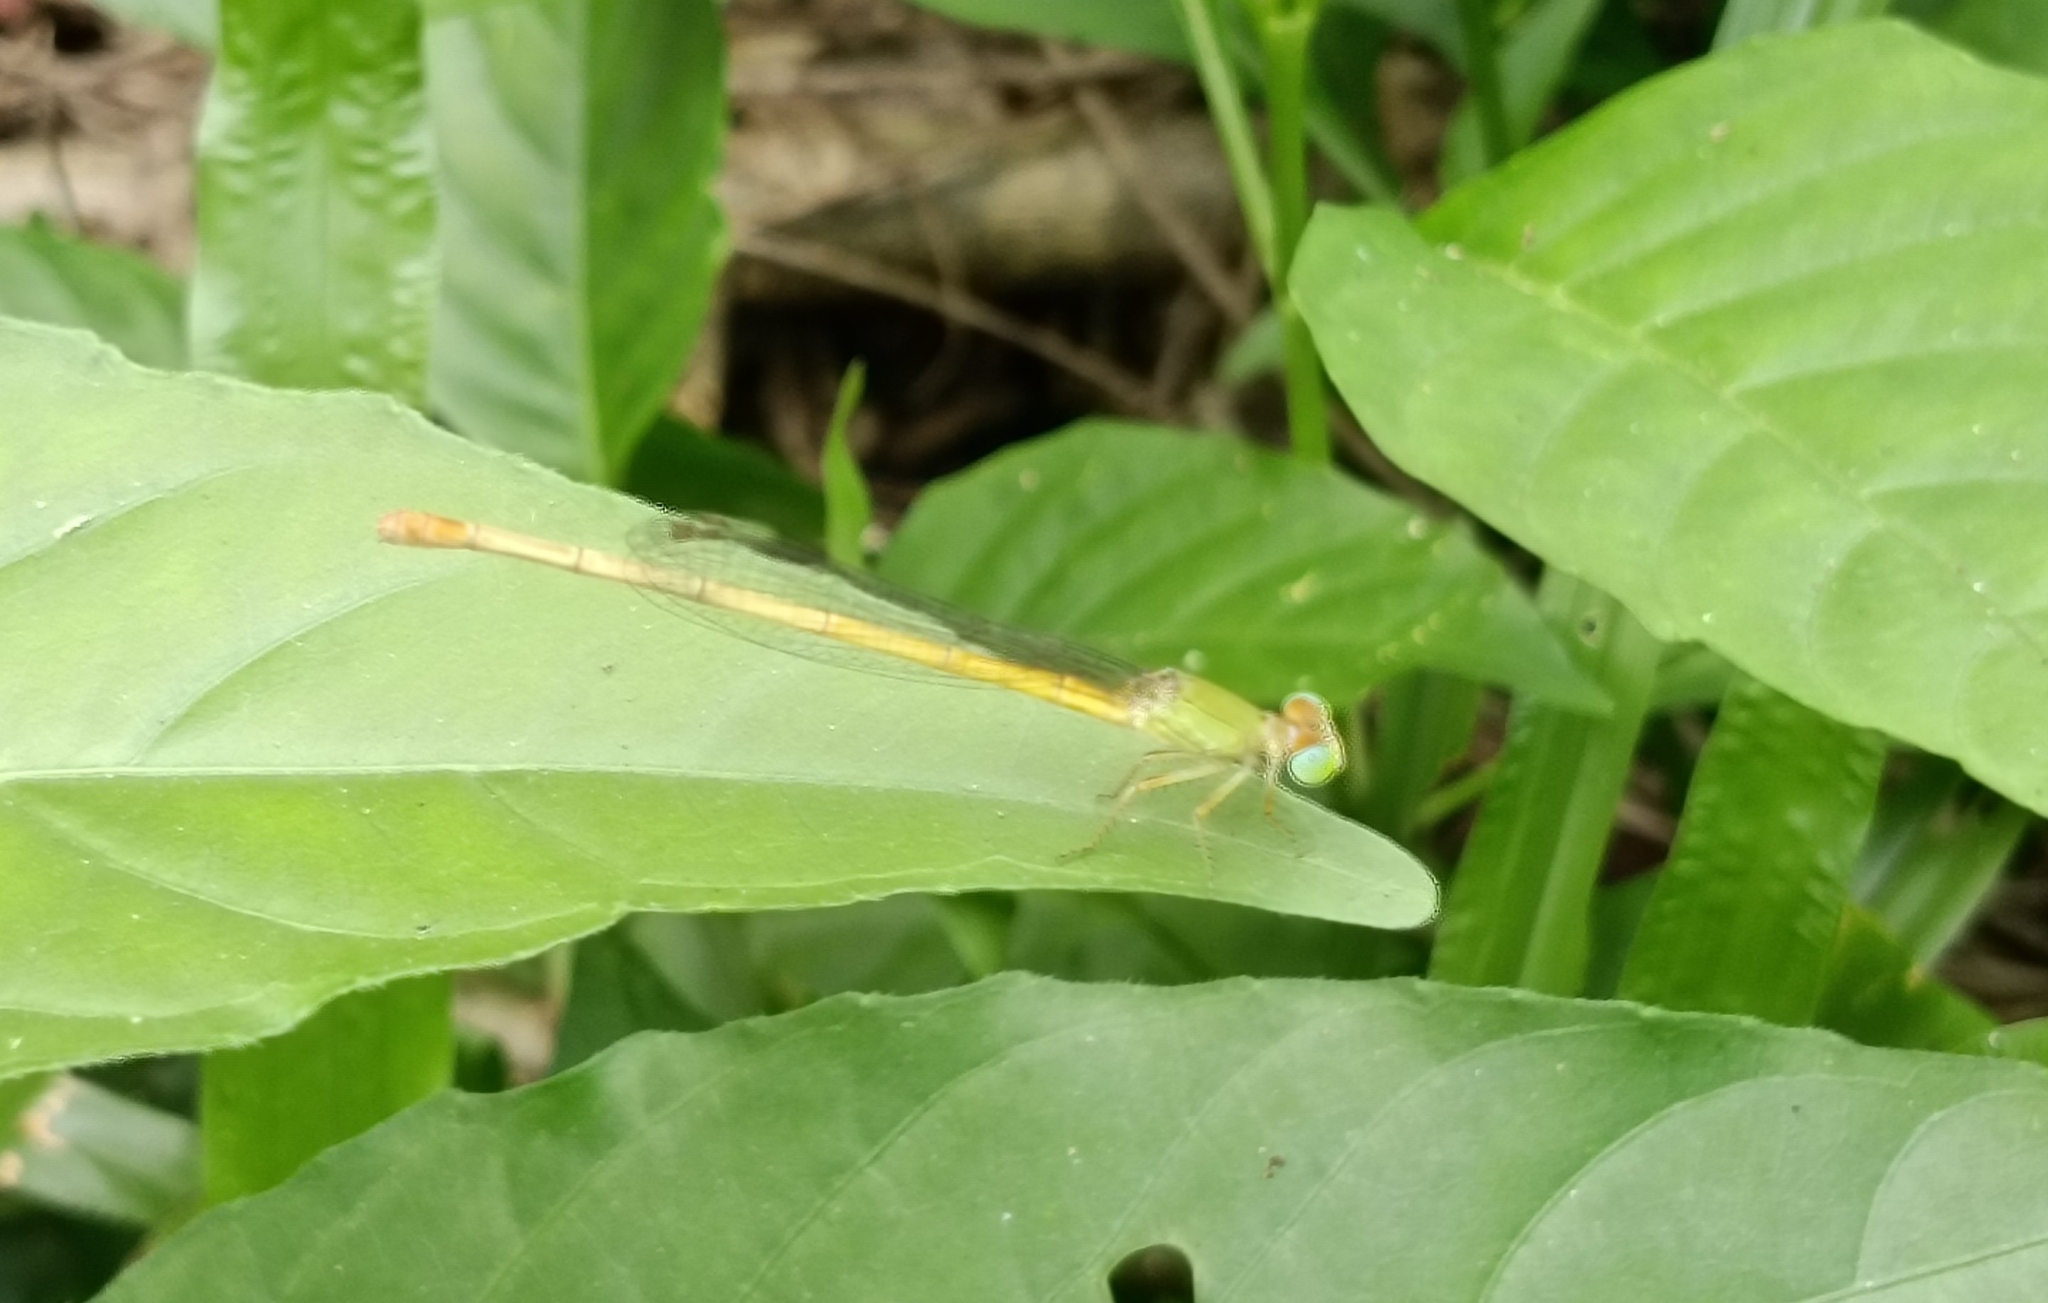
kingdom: Animalia
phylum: Arthropoda
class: Insecta
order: Odonata
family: Coenagrionidae
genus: Ceriagrion
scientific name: Ceriagrion coromandelianum
